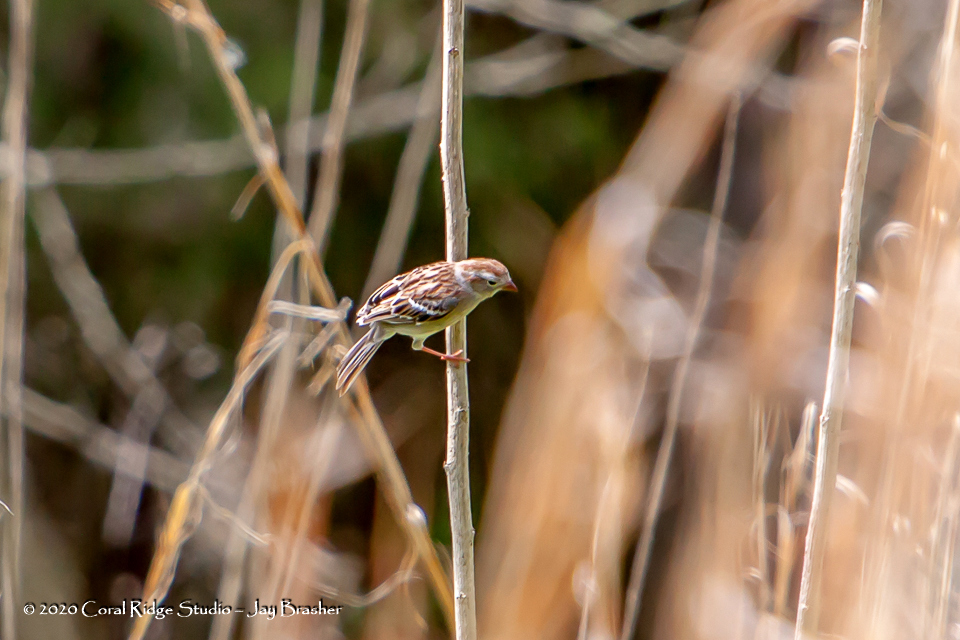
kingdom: Animalia
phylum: Chordata
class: Aves
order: Passeriformes
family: Passerellidae
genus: Spizella
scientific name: Spizella pusilla
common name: Field sparrow
